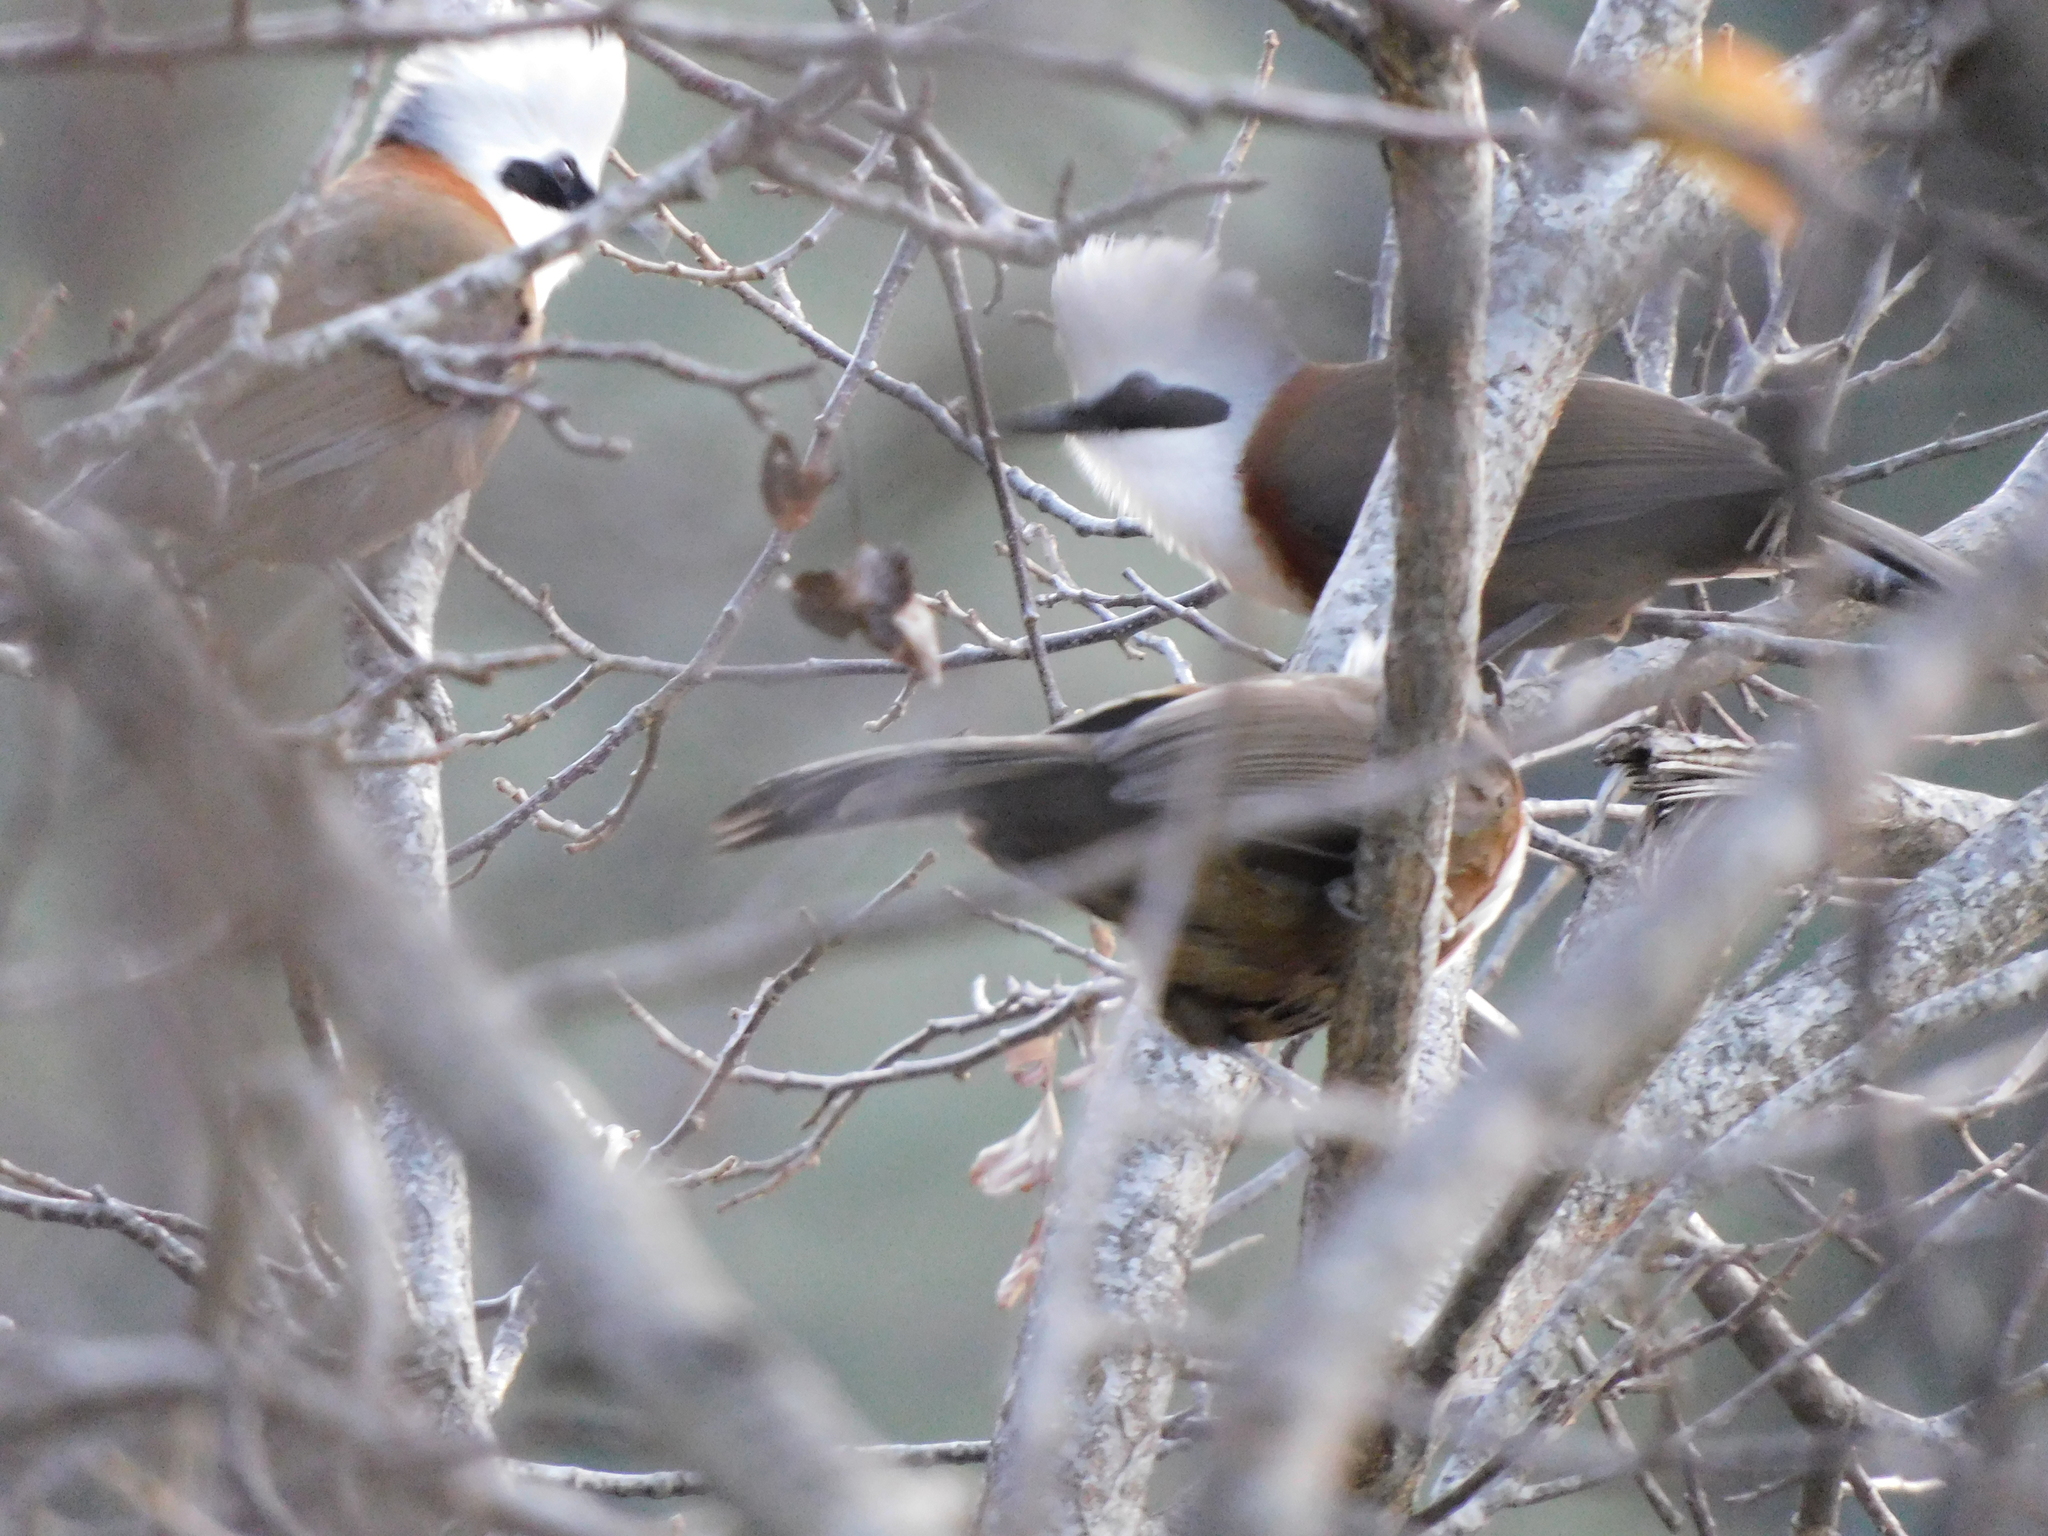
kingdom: Animalia
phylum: Chordata
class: Aves
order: Passeriformes
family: Leiothrichidae
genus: Garrulax
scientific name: Garrulax leucolophus
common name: White-crested laughingthrush
